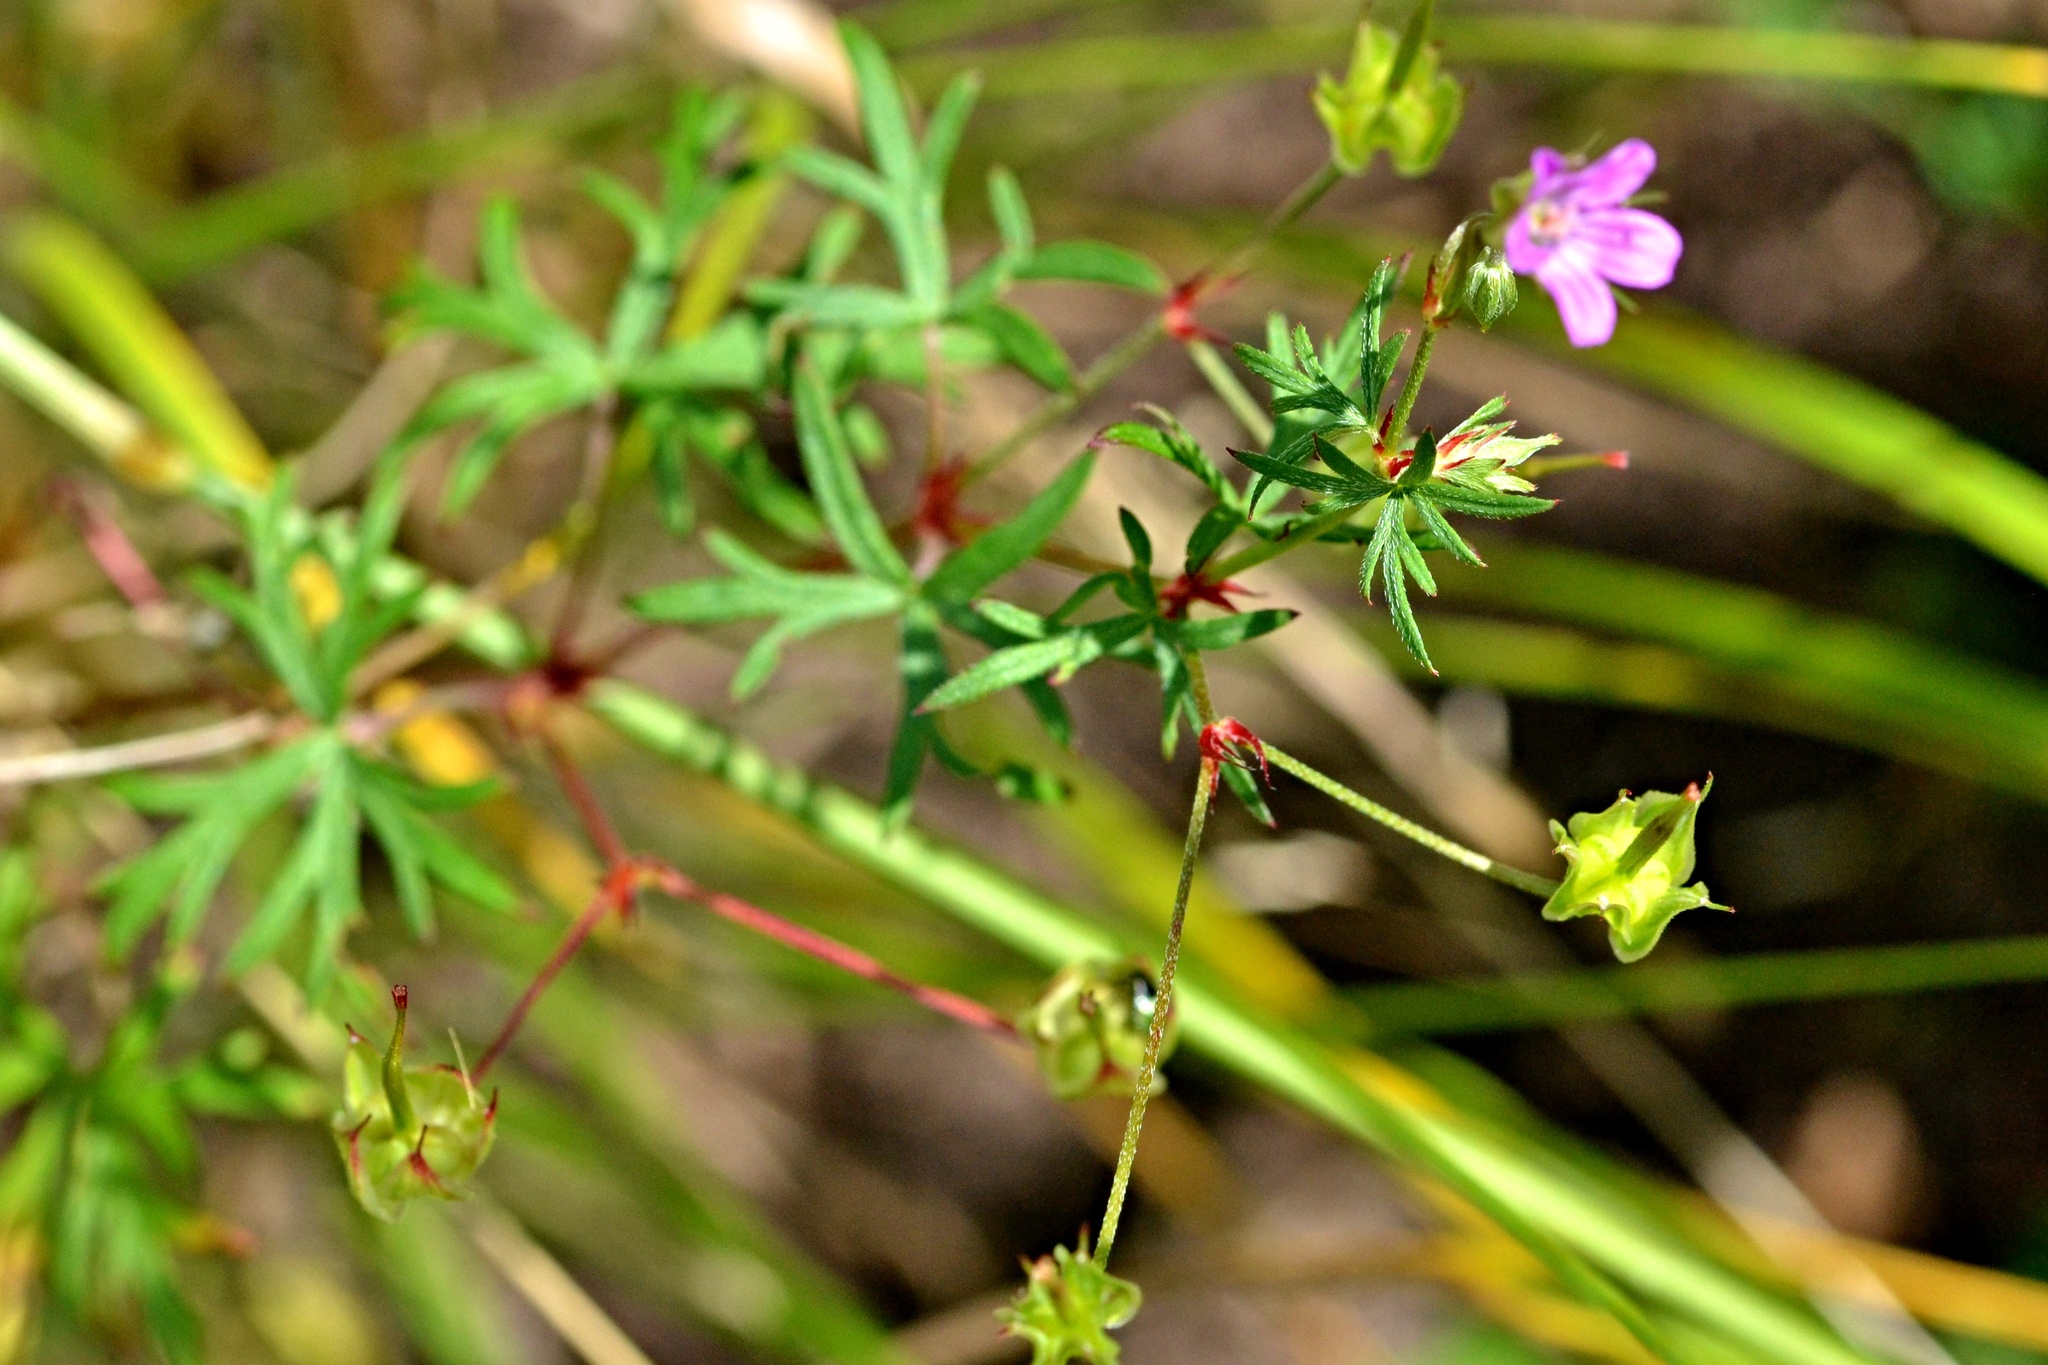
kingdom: Plantae
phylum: Tracheophyta
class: Magnoliopsida
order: Geraniales
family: Geraniaceae
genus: Geranium
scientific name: Geranium columbinum
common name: Long-stalked crane's-bill
